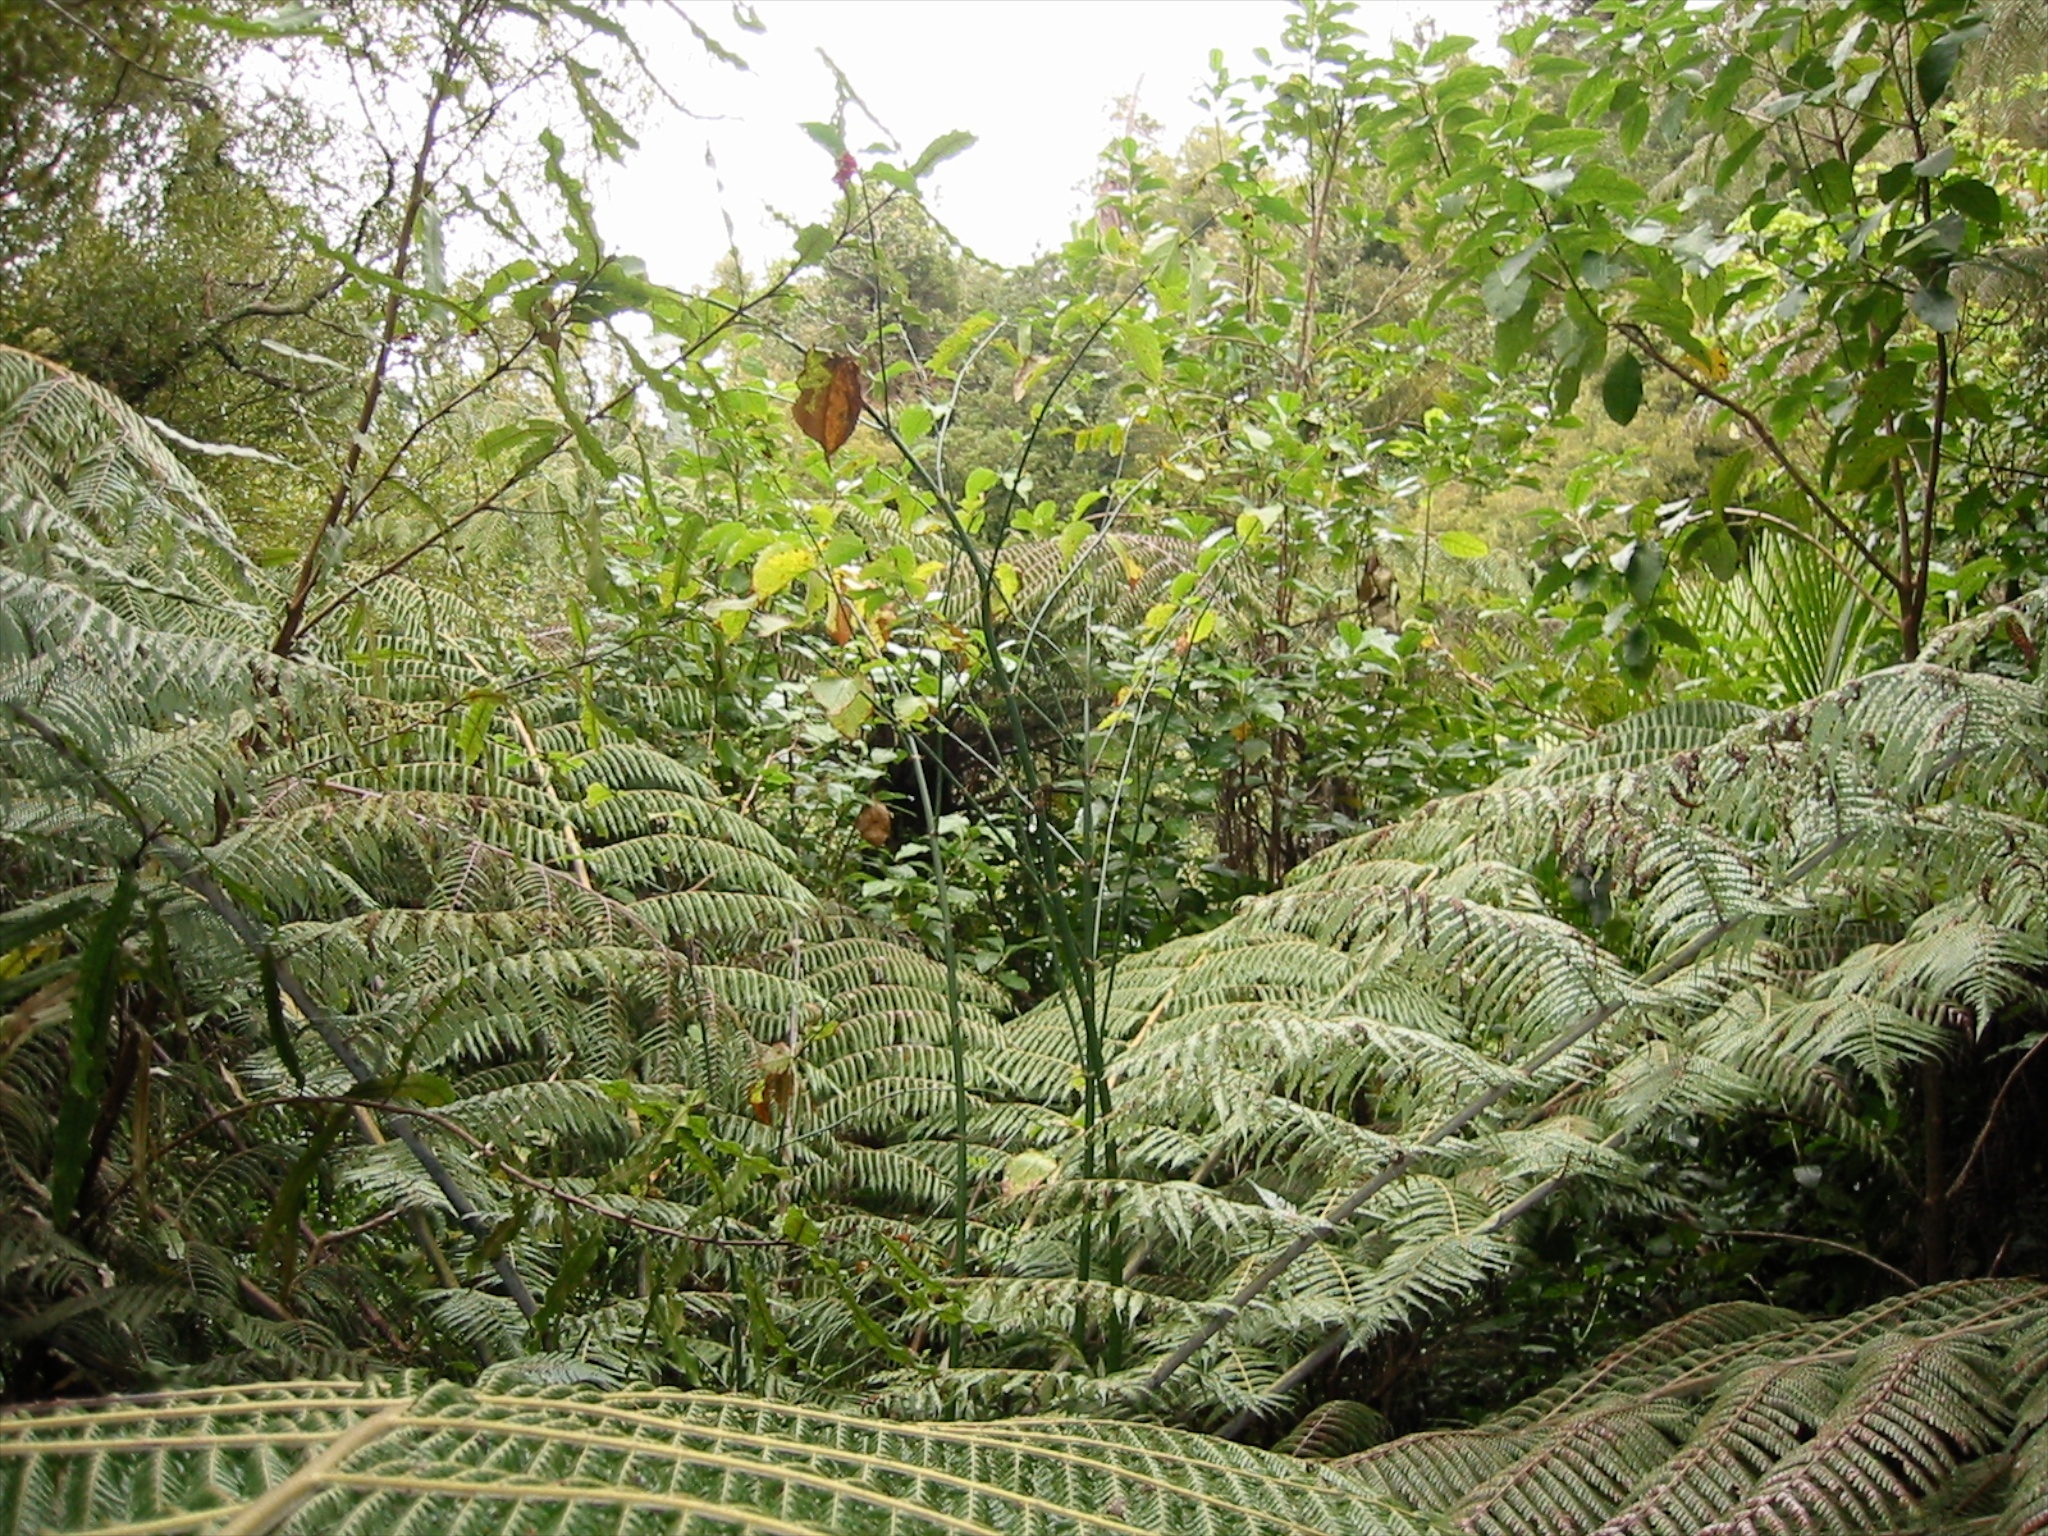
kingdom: Plantae
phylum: Tracheophyta
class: Magnoliopsida
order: Dipsacales
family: Caprifoliaceae
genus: Leycesteria
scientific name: Leycesteria formosa
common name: Himalayan honeysuckle
